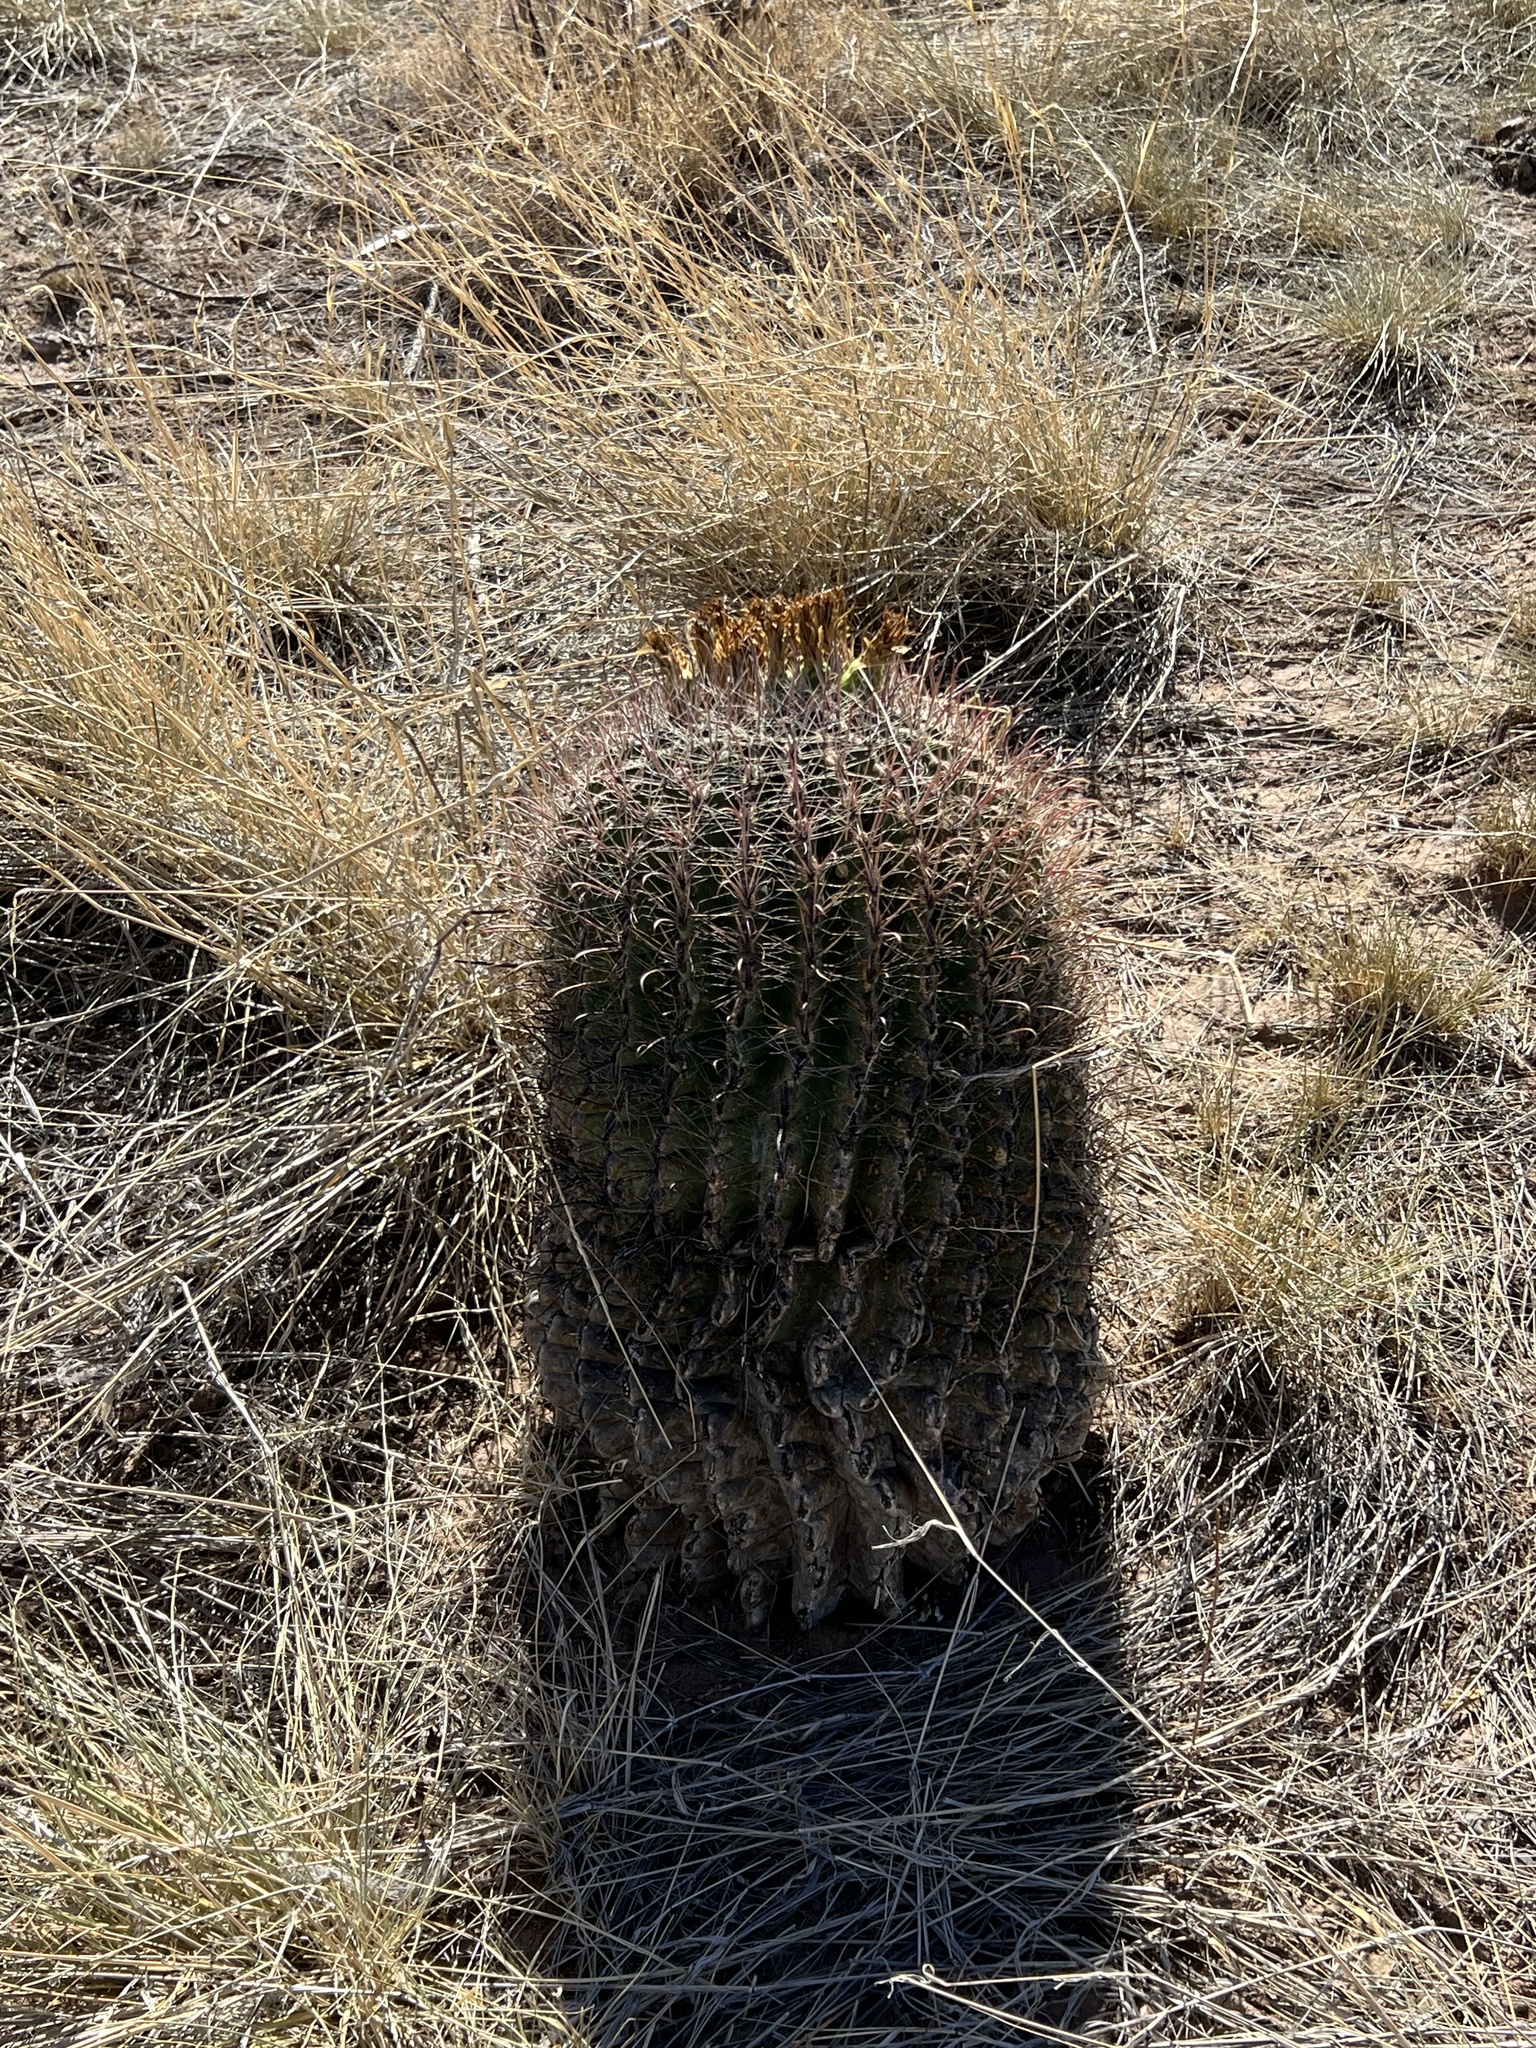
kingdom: Plantae
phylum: Tracheophyta
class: Magnoliopsida
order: Caryophyllales
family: Cactaceae
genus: Ferocactus
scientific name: Ferocactus wislizeni
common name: Candy barrel cactus
